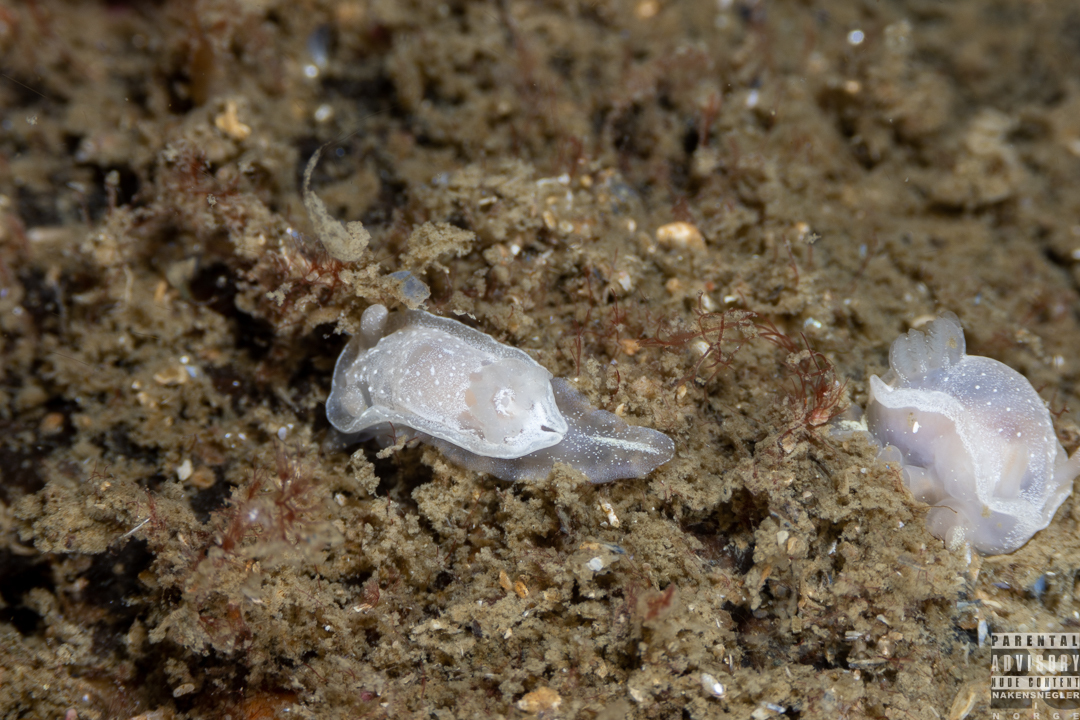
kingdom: Animalia
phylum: Mollusca
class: Gastropoda
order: Nudibranchia
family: Goniodorididae
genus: Okenia
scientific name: Okenia
